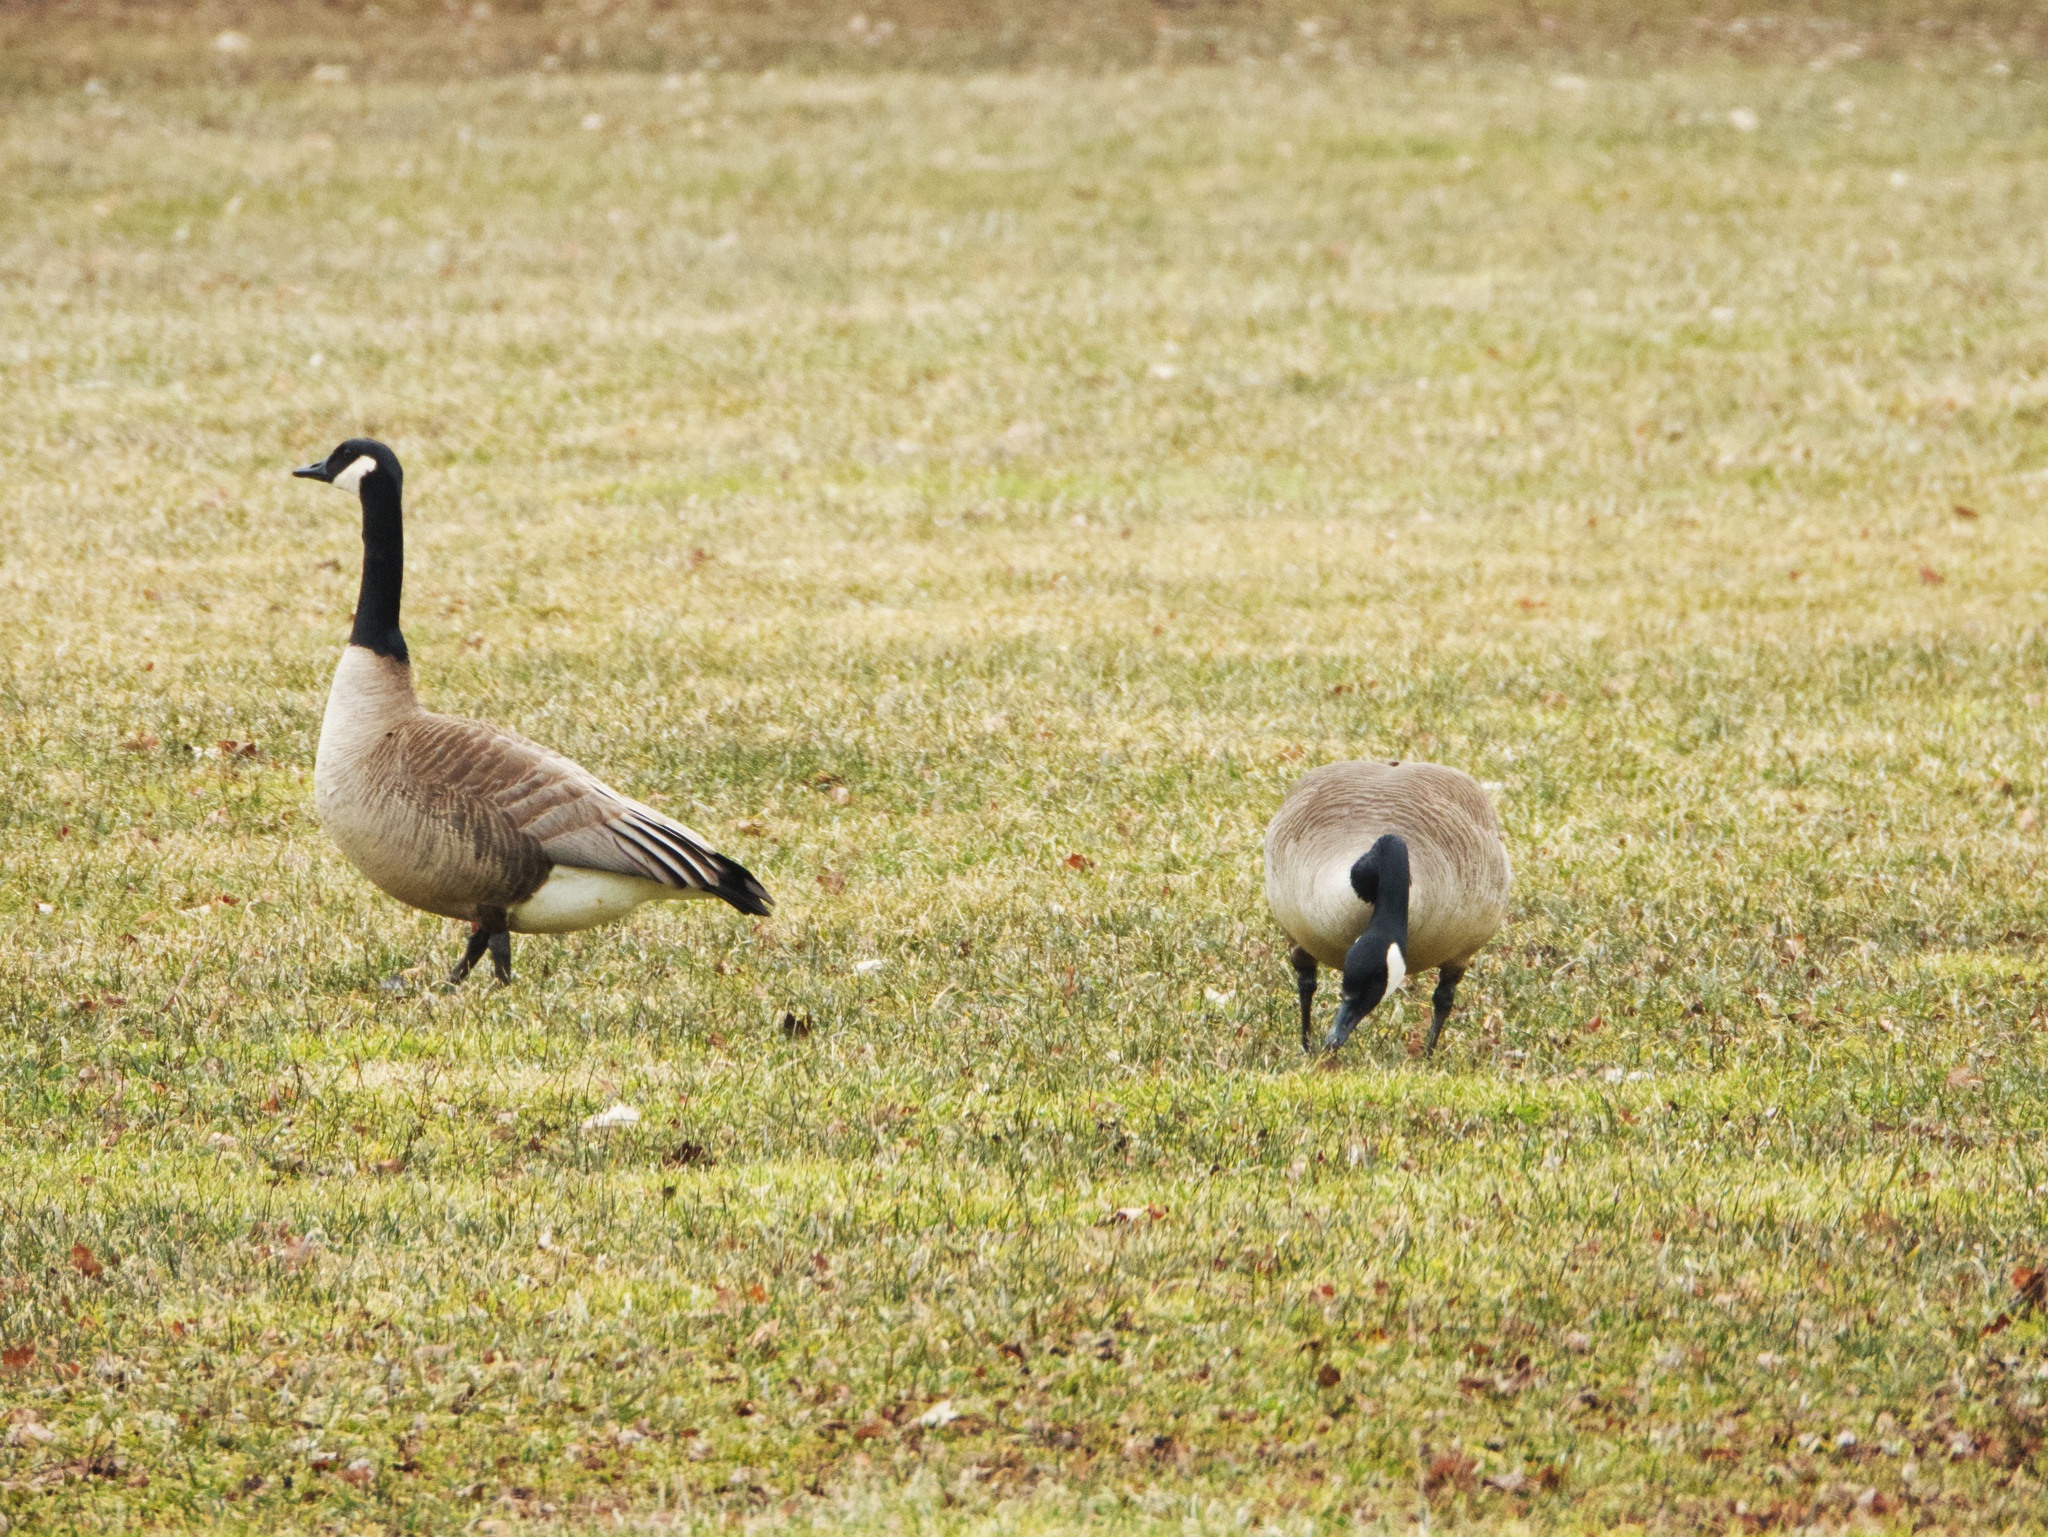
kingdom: Animalia
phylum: Chordata
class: Aves
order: Anseriformes
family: Anatidae
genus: Branta
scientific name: Branta canadensis
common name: Canada goose
